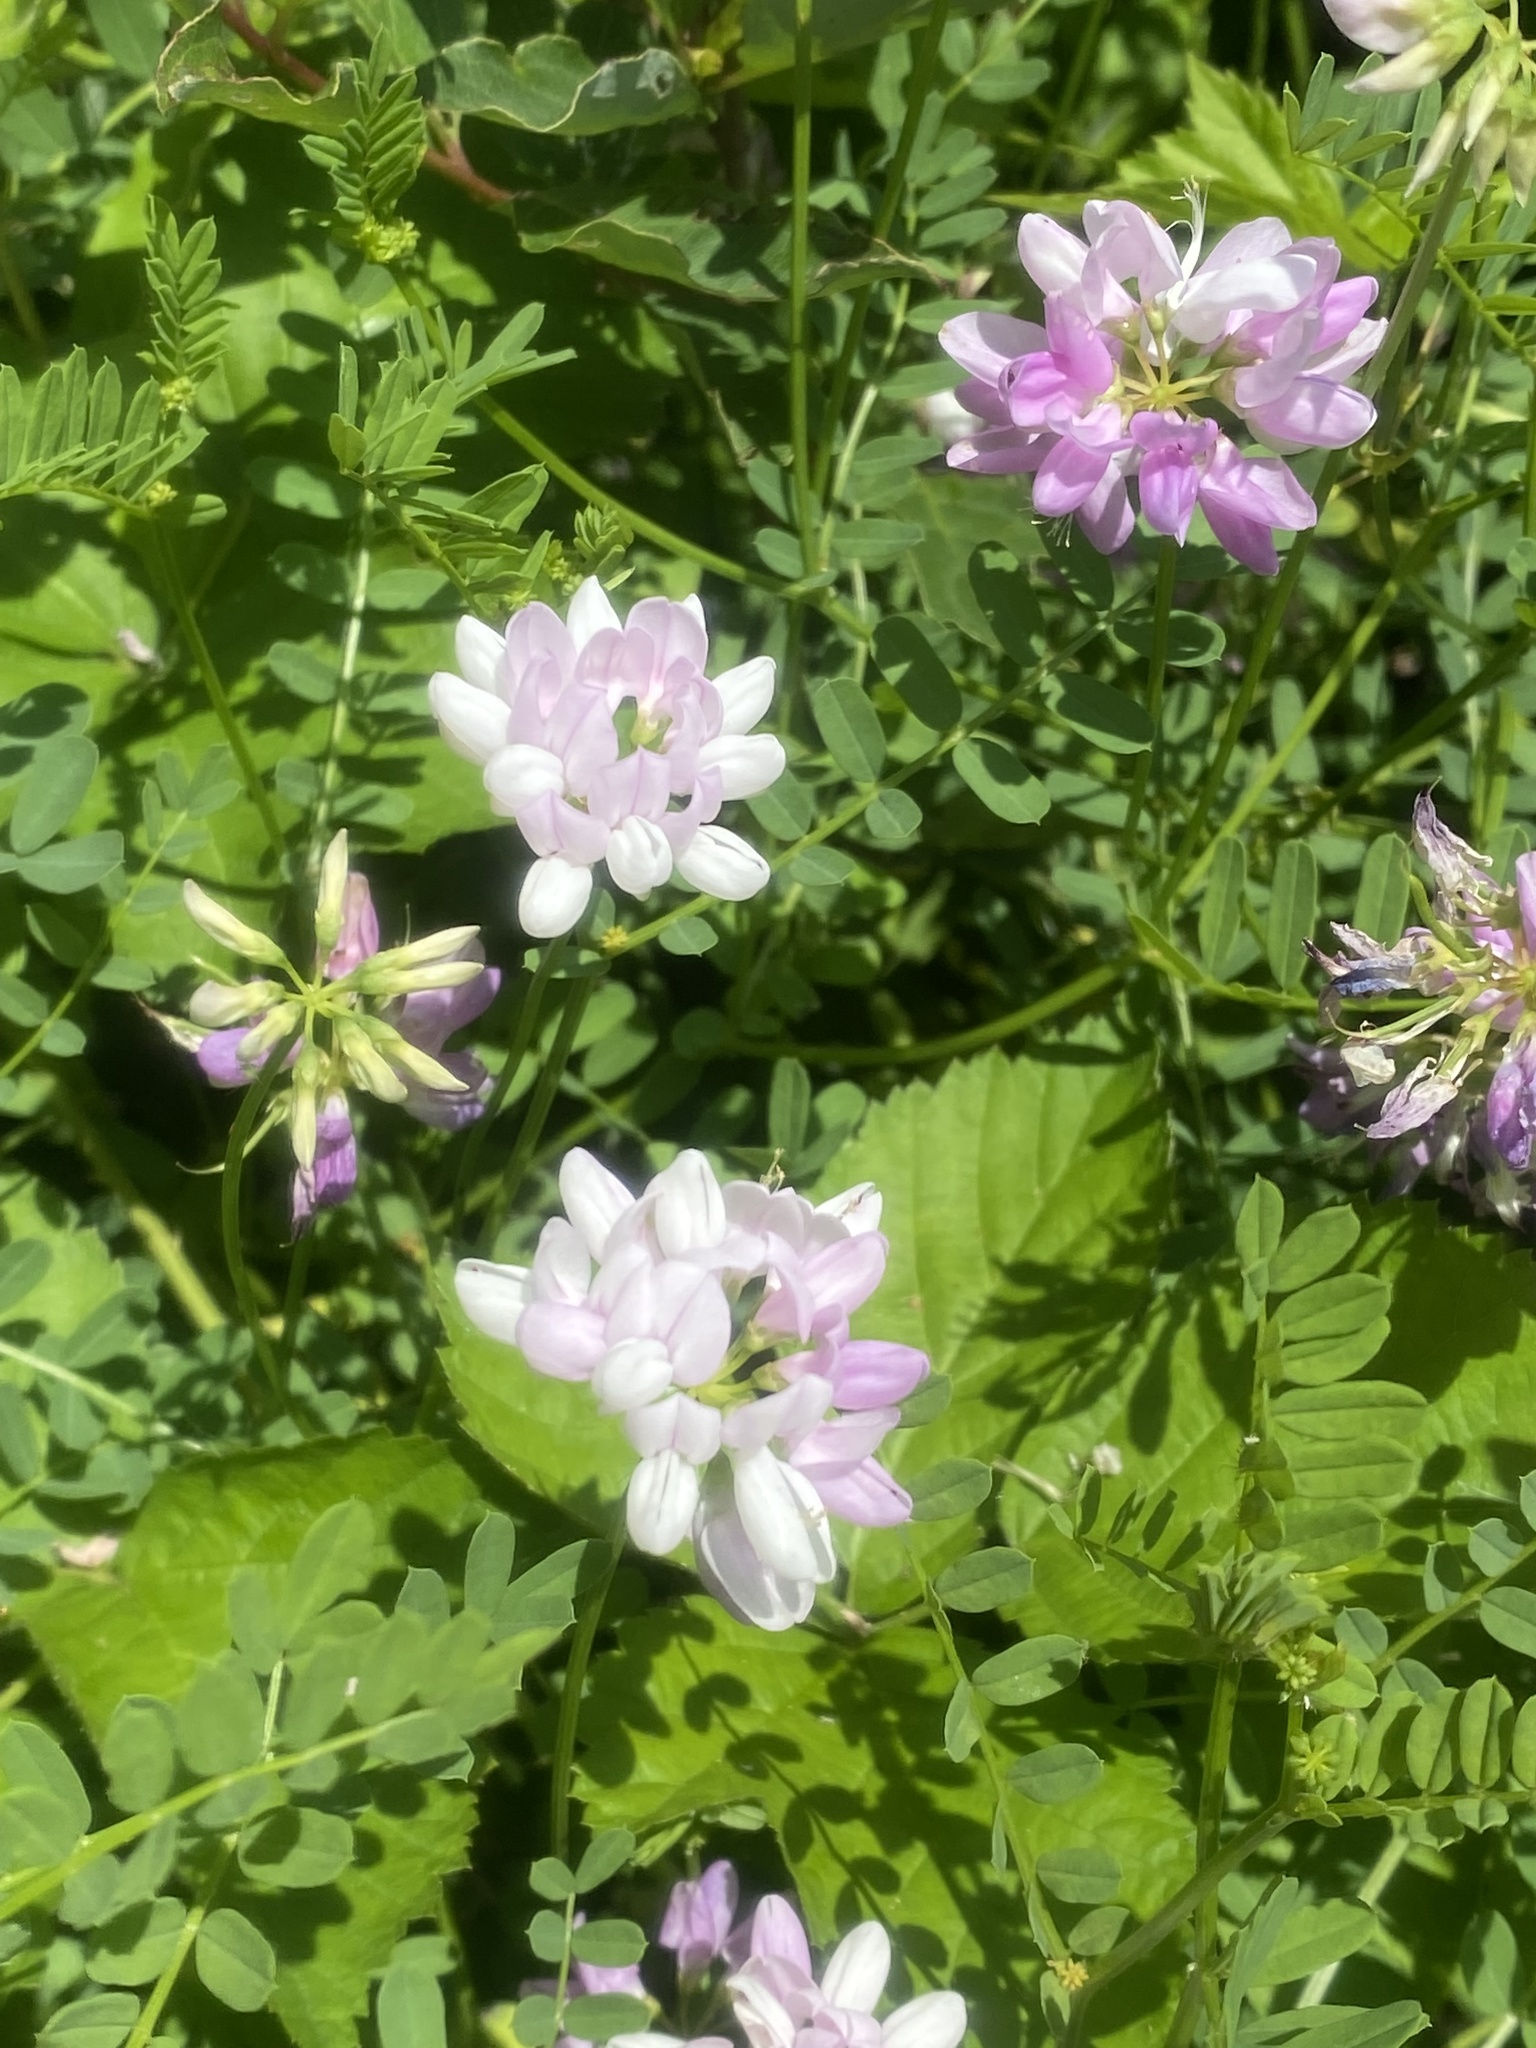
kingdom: Plantae
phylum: Tracheophyta
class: Magnoliopsida
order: Fabales
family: Fabaceae
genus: Coronilla
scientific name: Coronilla varia
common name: Crownvetch
